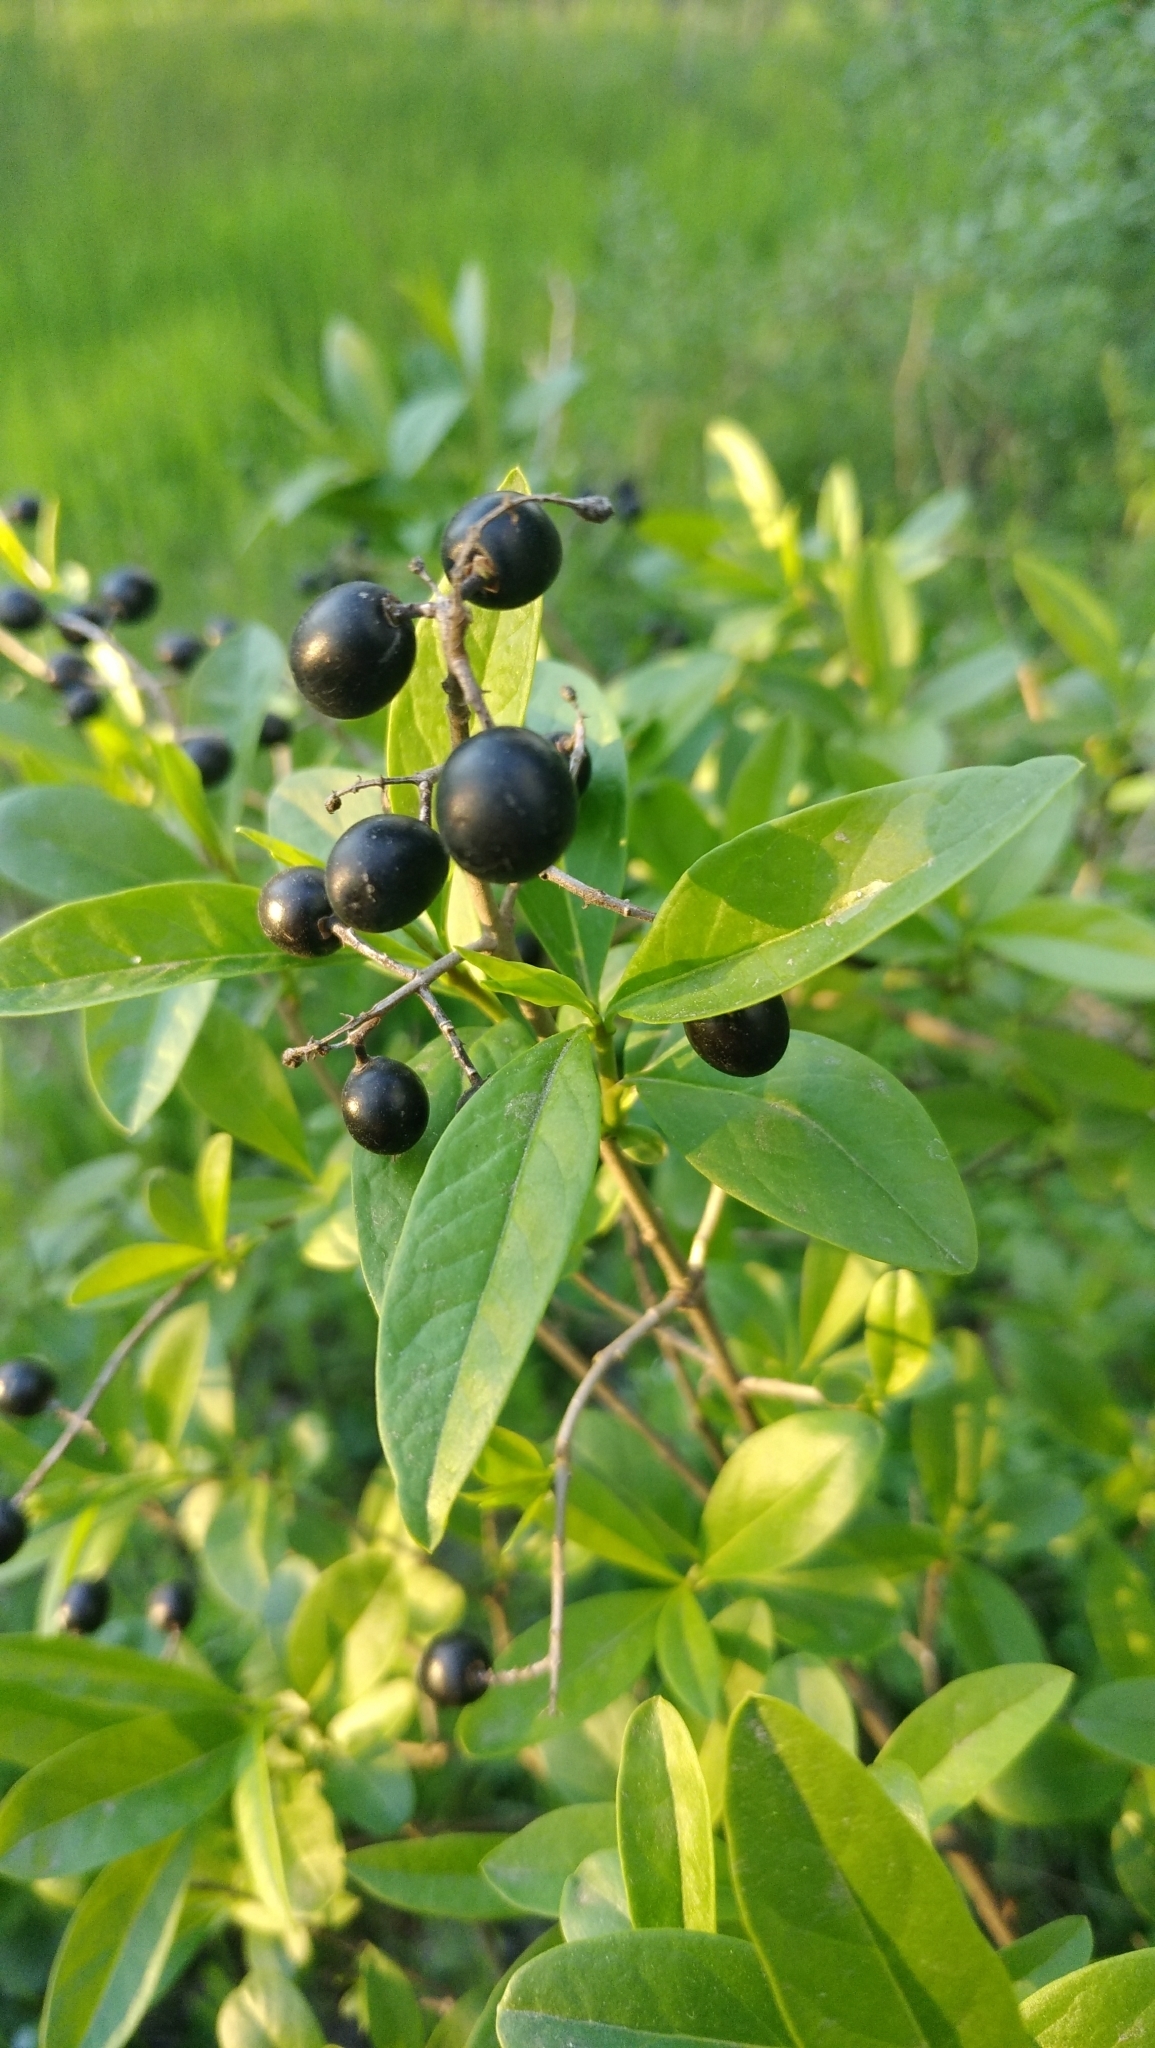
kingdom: Plantae
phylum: Tracheophyta
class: Magnoliopsida
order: Lamiales
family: Oleaceae
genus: Ligustrum
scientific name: Ligustrum vulgare
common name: Wild privet
